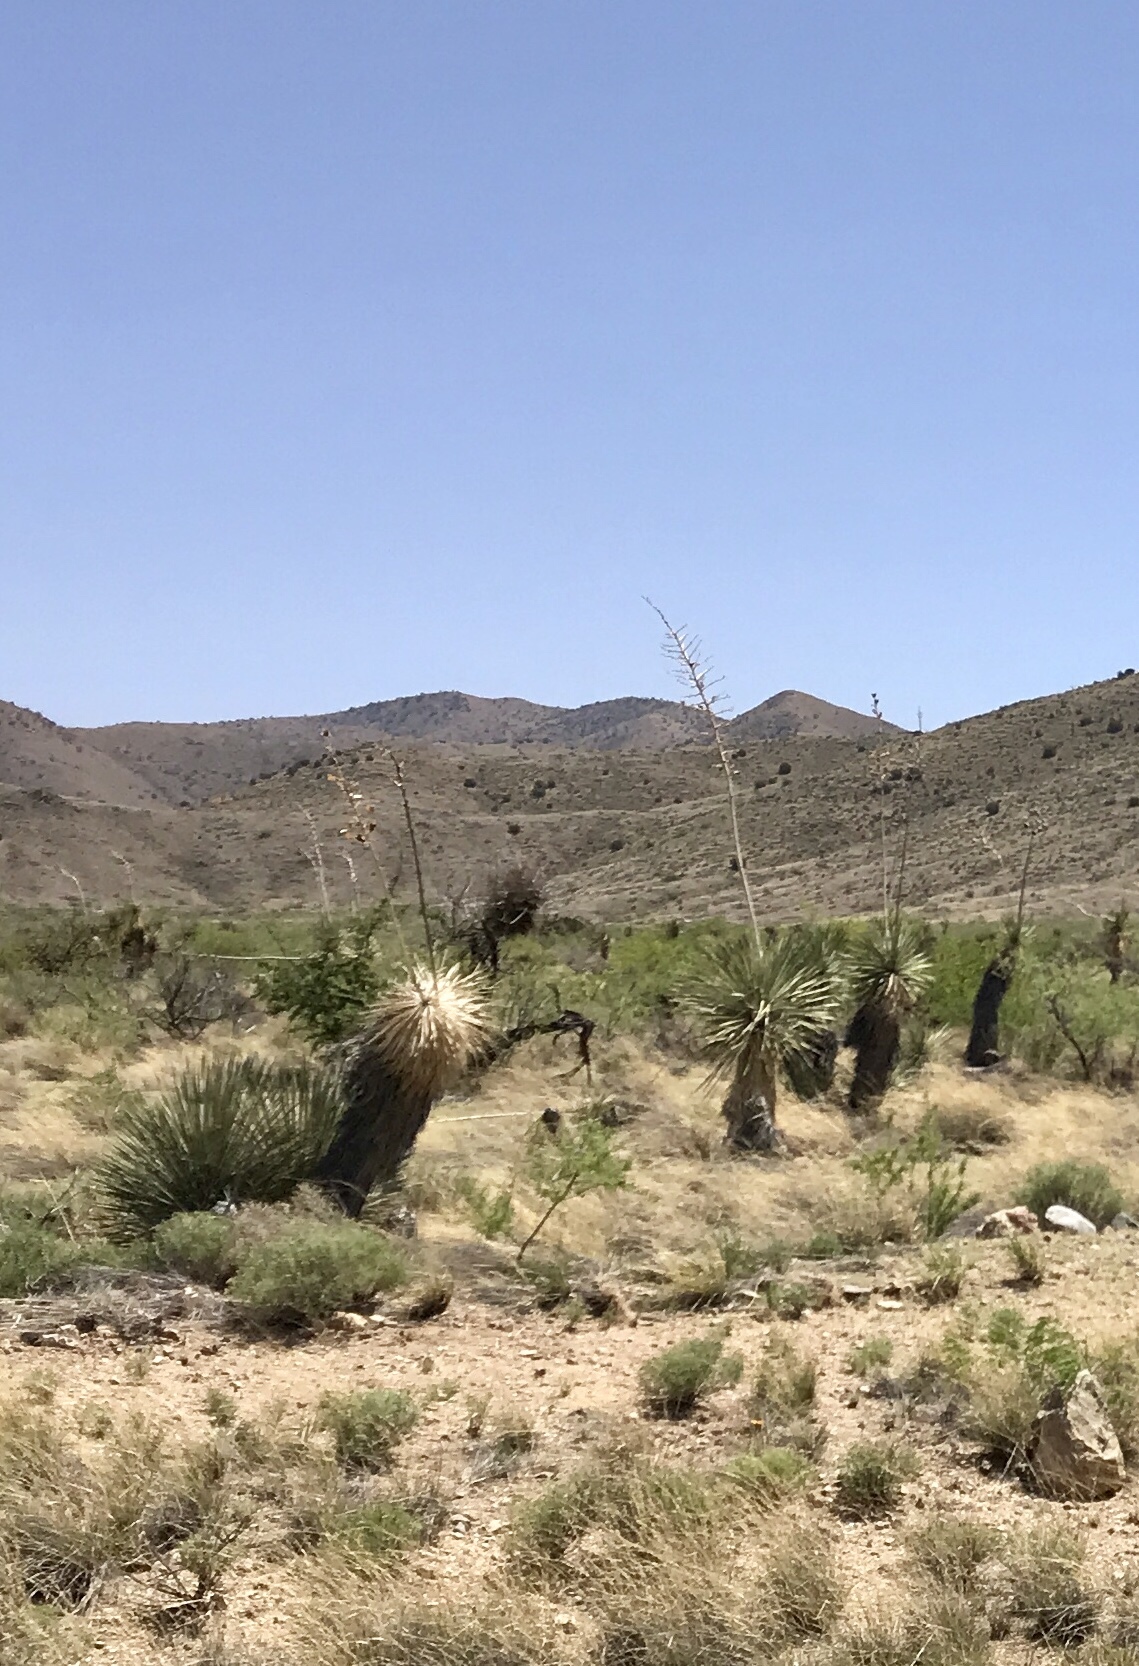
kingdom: Plantae
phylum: Tracheophyta
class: Liliopsida
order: Asparagales
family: Asparagaceae
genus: Yucca
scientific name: Yucca elata
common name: Palmella
